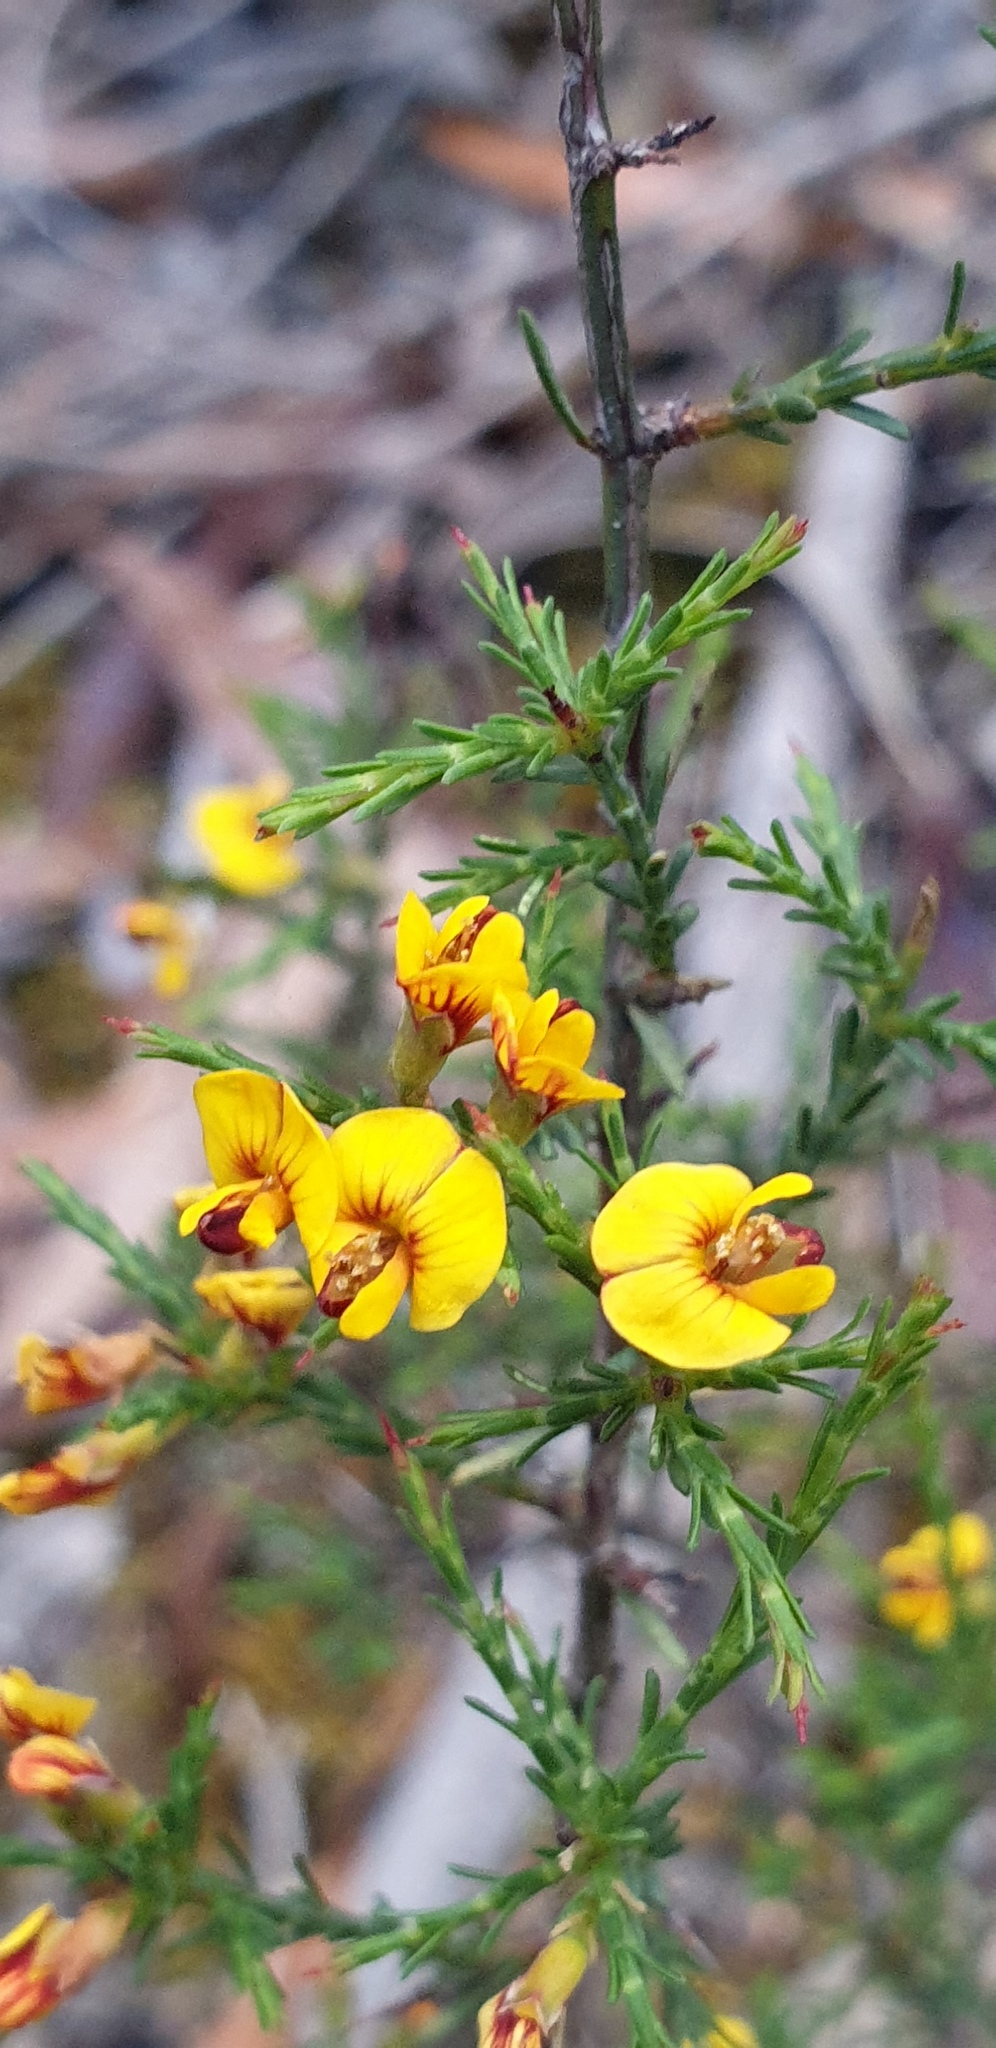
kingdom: Plantae
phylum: Tracheophyta
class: Magnoliopsida
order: Fabales
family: Fabaceae
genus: Eutaxia
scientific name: Eutaxia microphylla
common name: Mallee bush-pea
